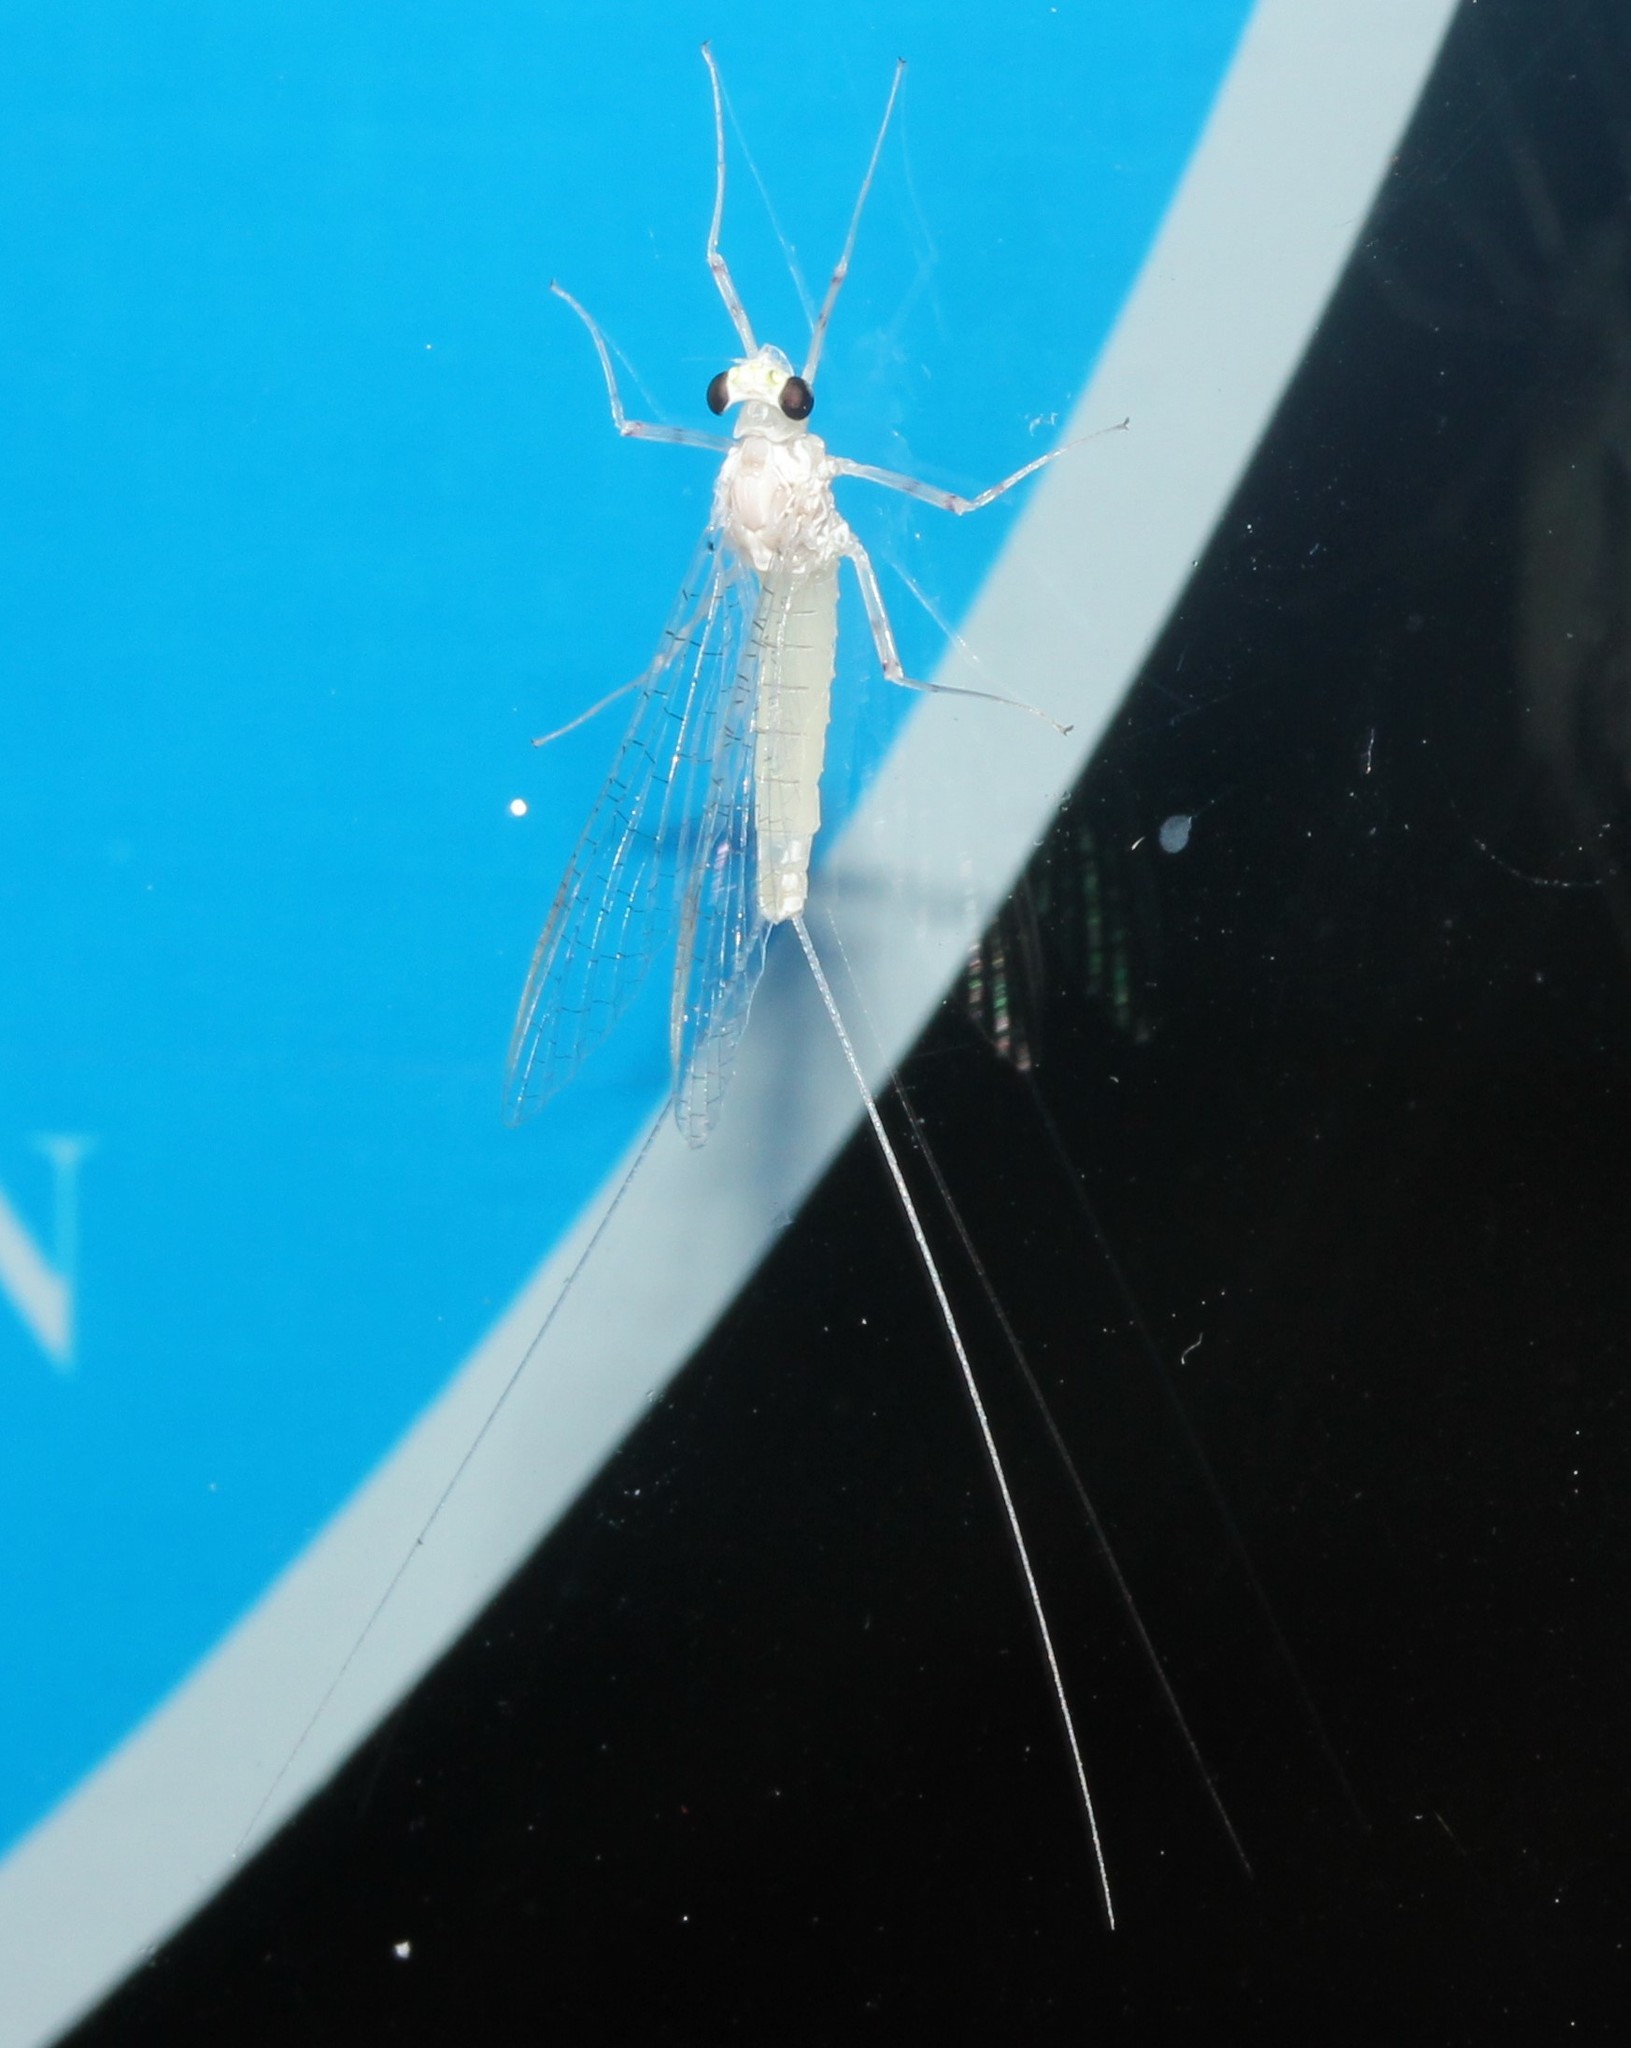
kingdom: Animalia
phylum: Arthropoda
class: Insecta
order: Ephemeroptera
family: Heptageniidae
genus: Maccaffertium
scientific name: Maccaffertium terminatum
